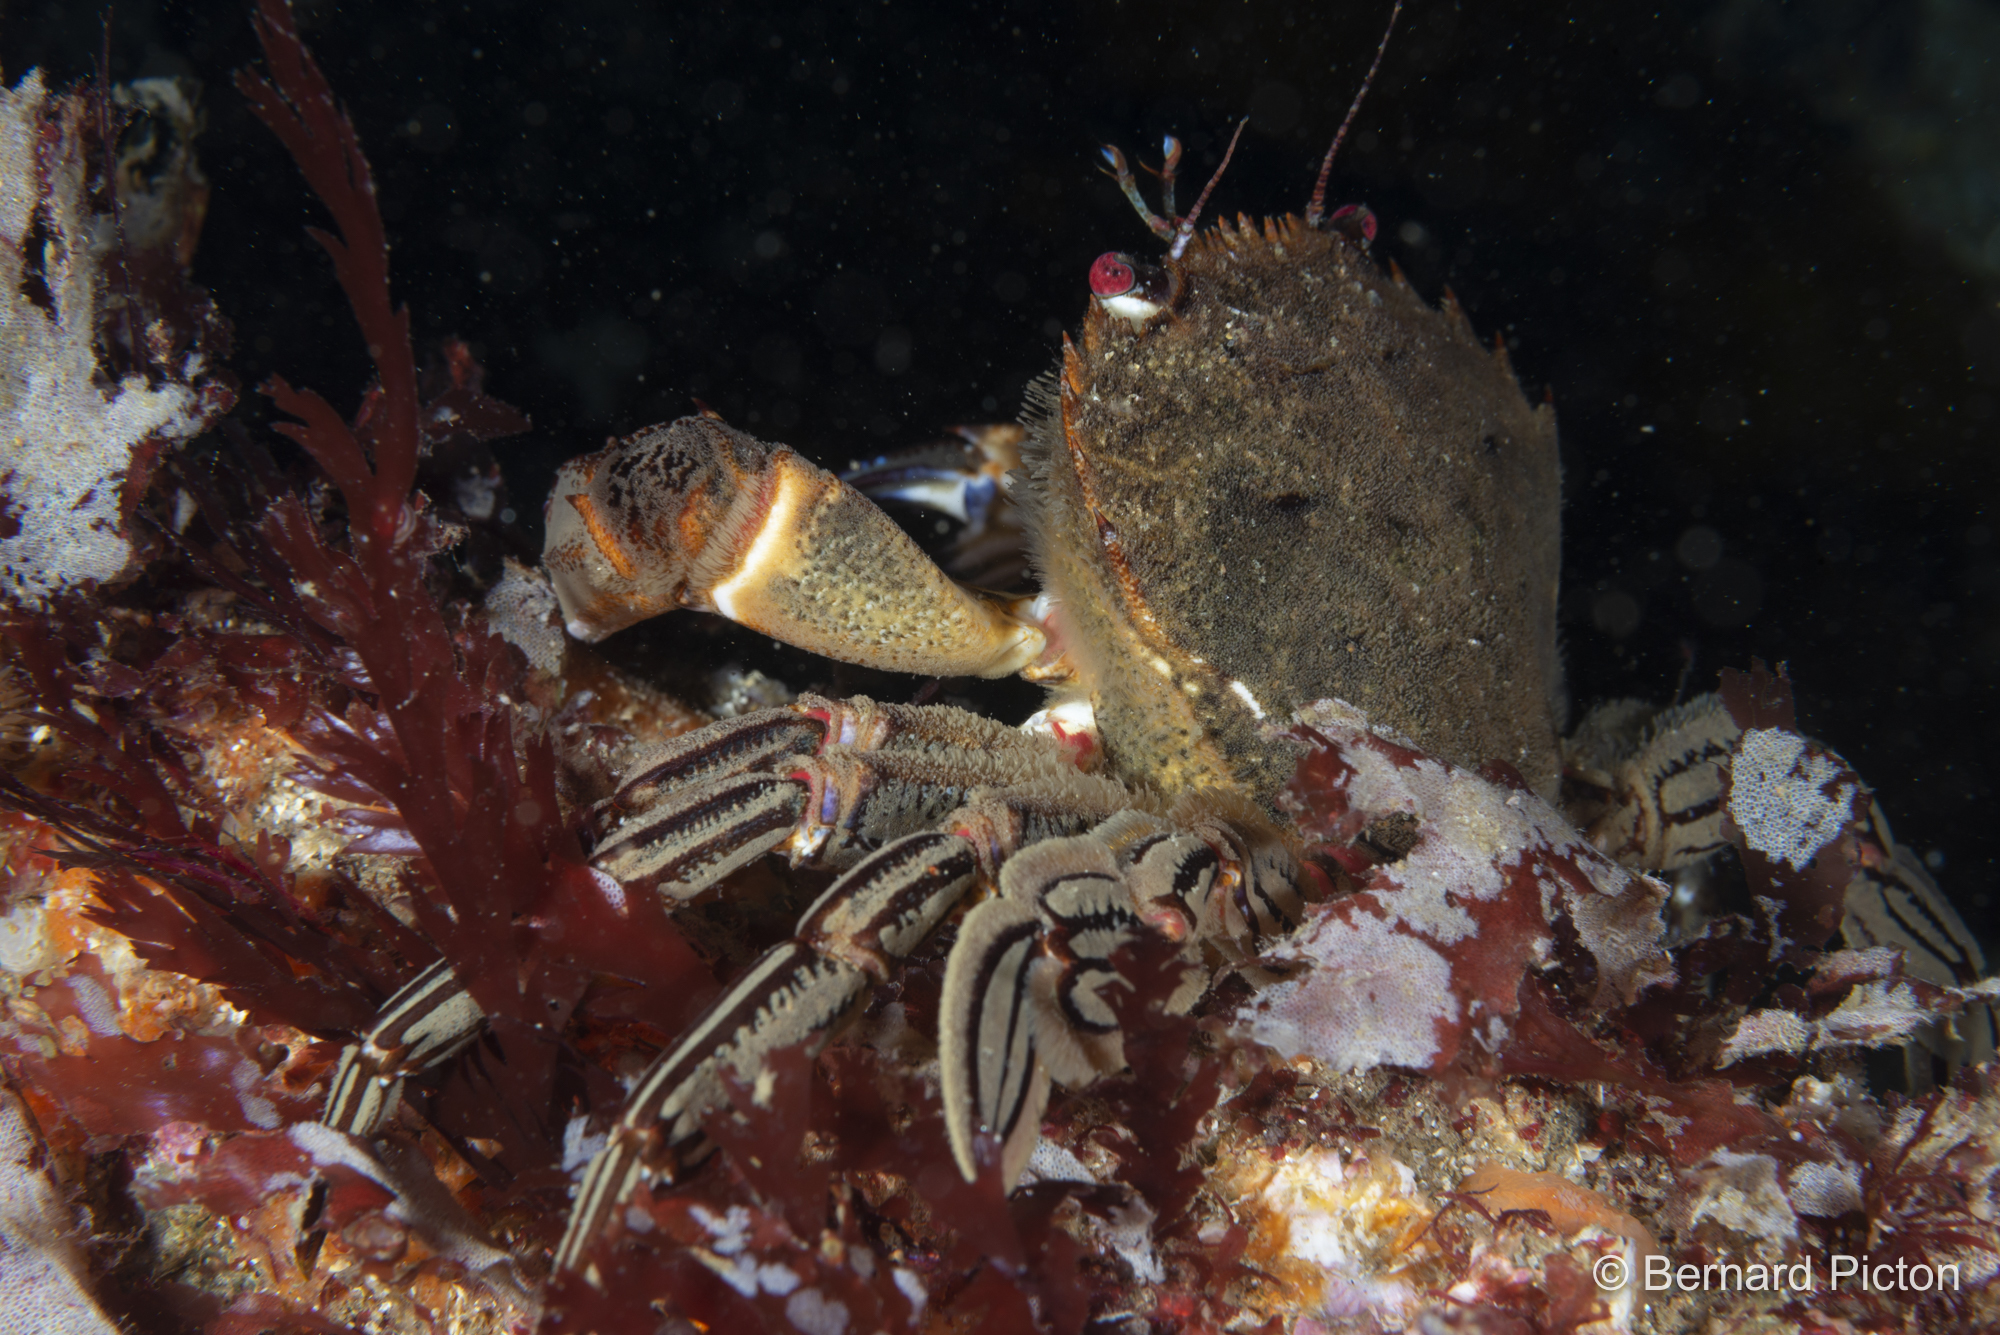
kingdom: Animalia
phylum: Arthropoda
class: Malacostraca
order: Decapoda
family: Polybiidae
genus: Necora
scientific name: Necora puber
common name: Velvet swimming crab
